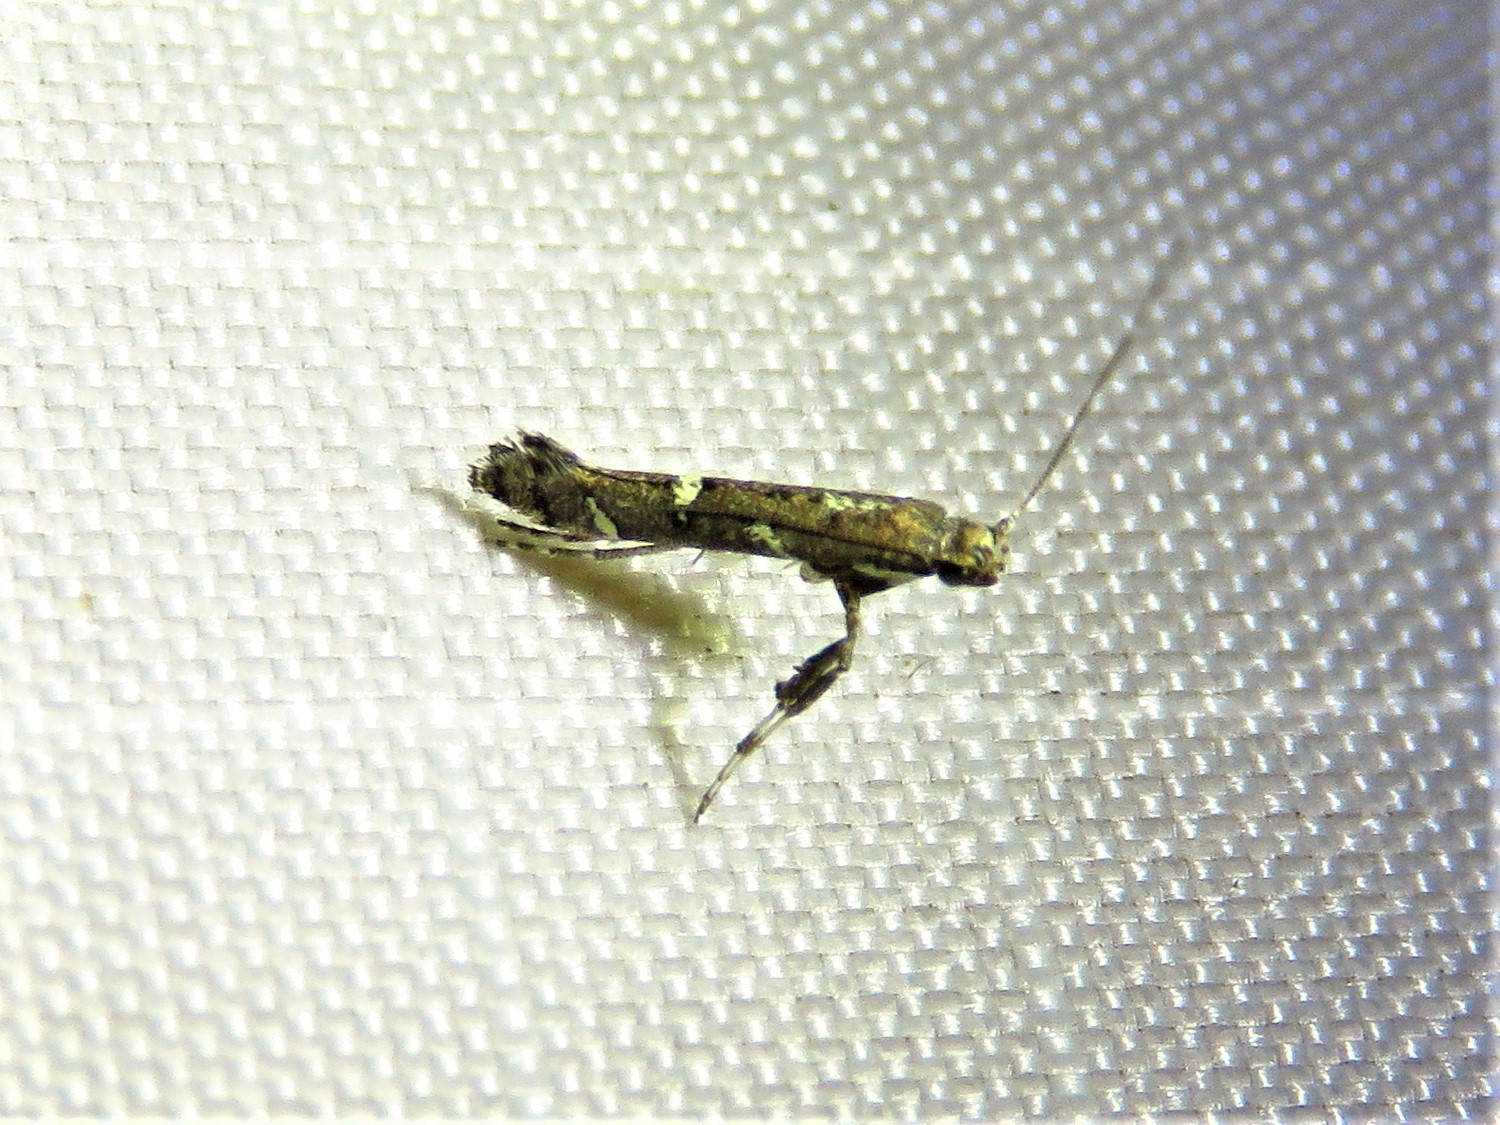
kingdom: Animalia
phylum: Arthropoda
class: Insecta
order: Lepidoptera
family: Gracillariidae
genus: Caloptilia
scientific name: Caloptilia triadicae
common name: Tallow leaf roller
